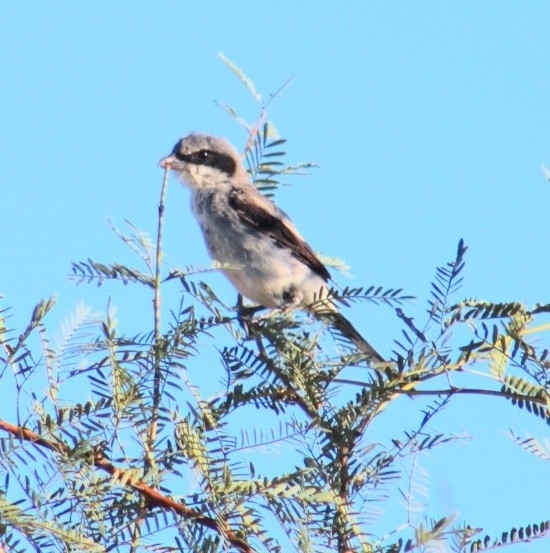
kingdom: Animalia
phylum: Chordata
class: Aves
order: Passeriformes
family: Laniidae
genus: Lanius
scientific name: Lanius ludovicianus
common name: Loggerhead shrike
